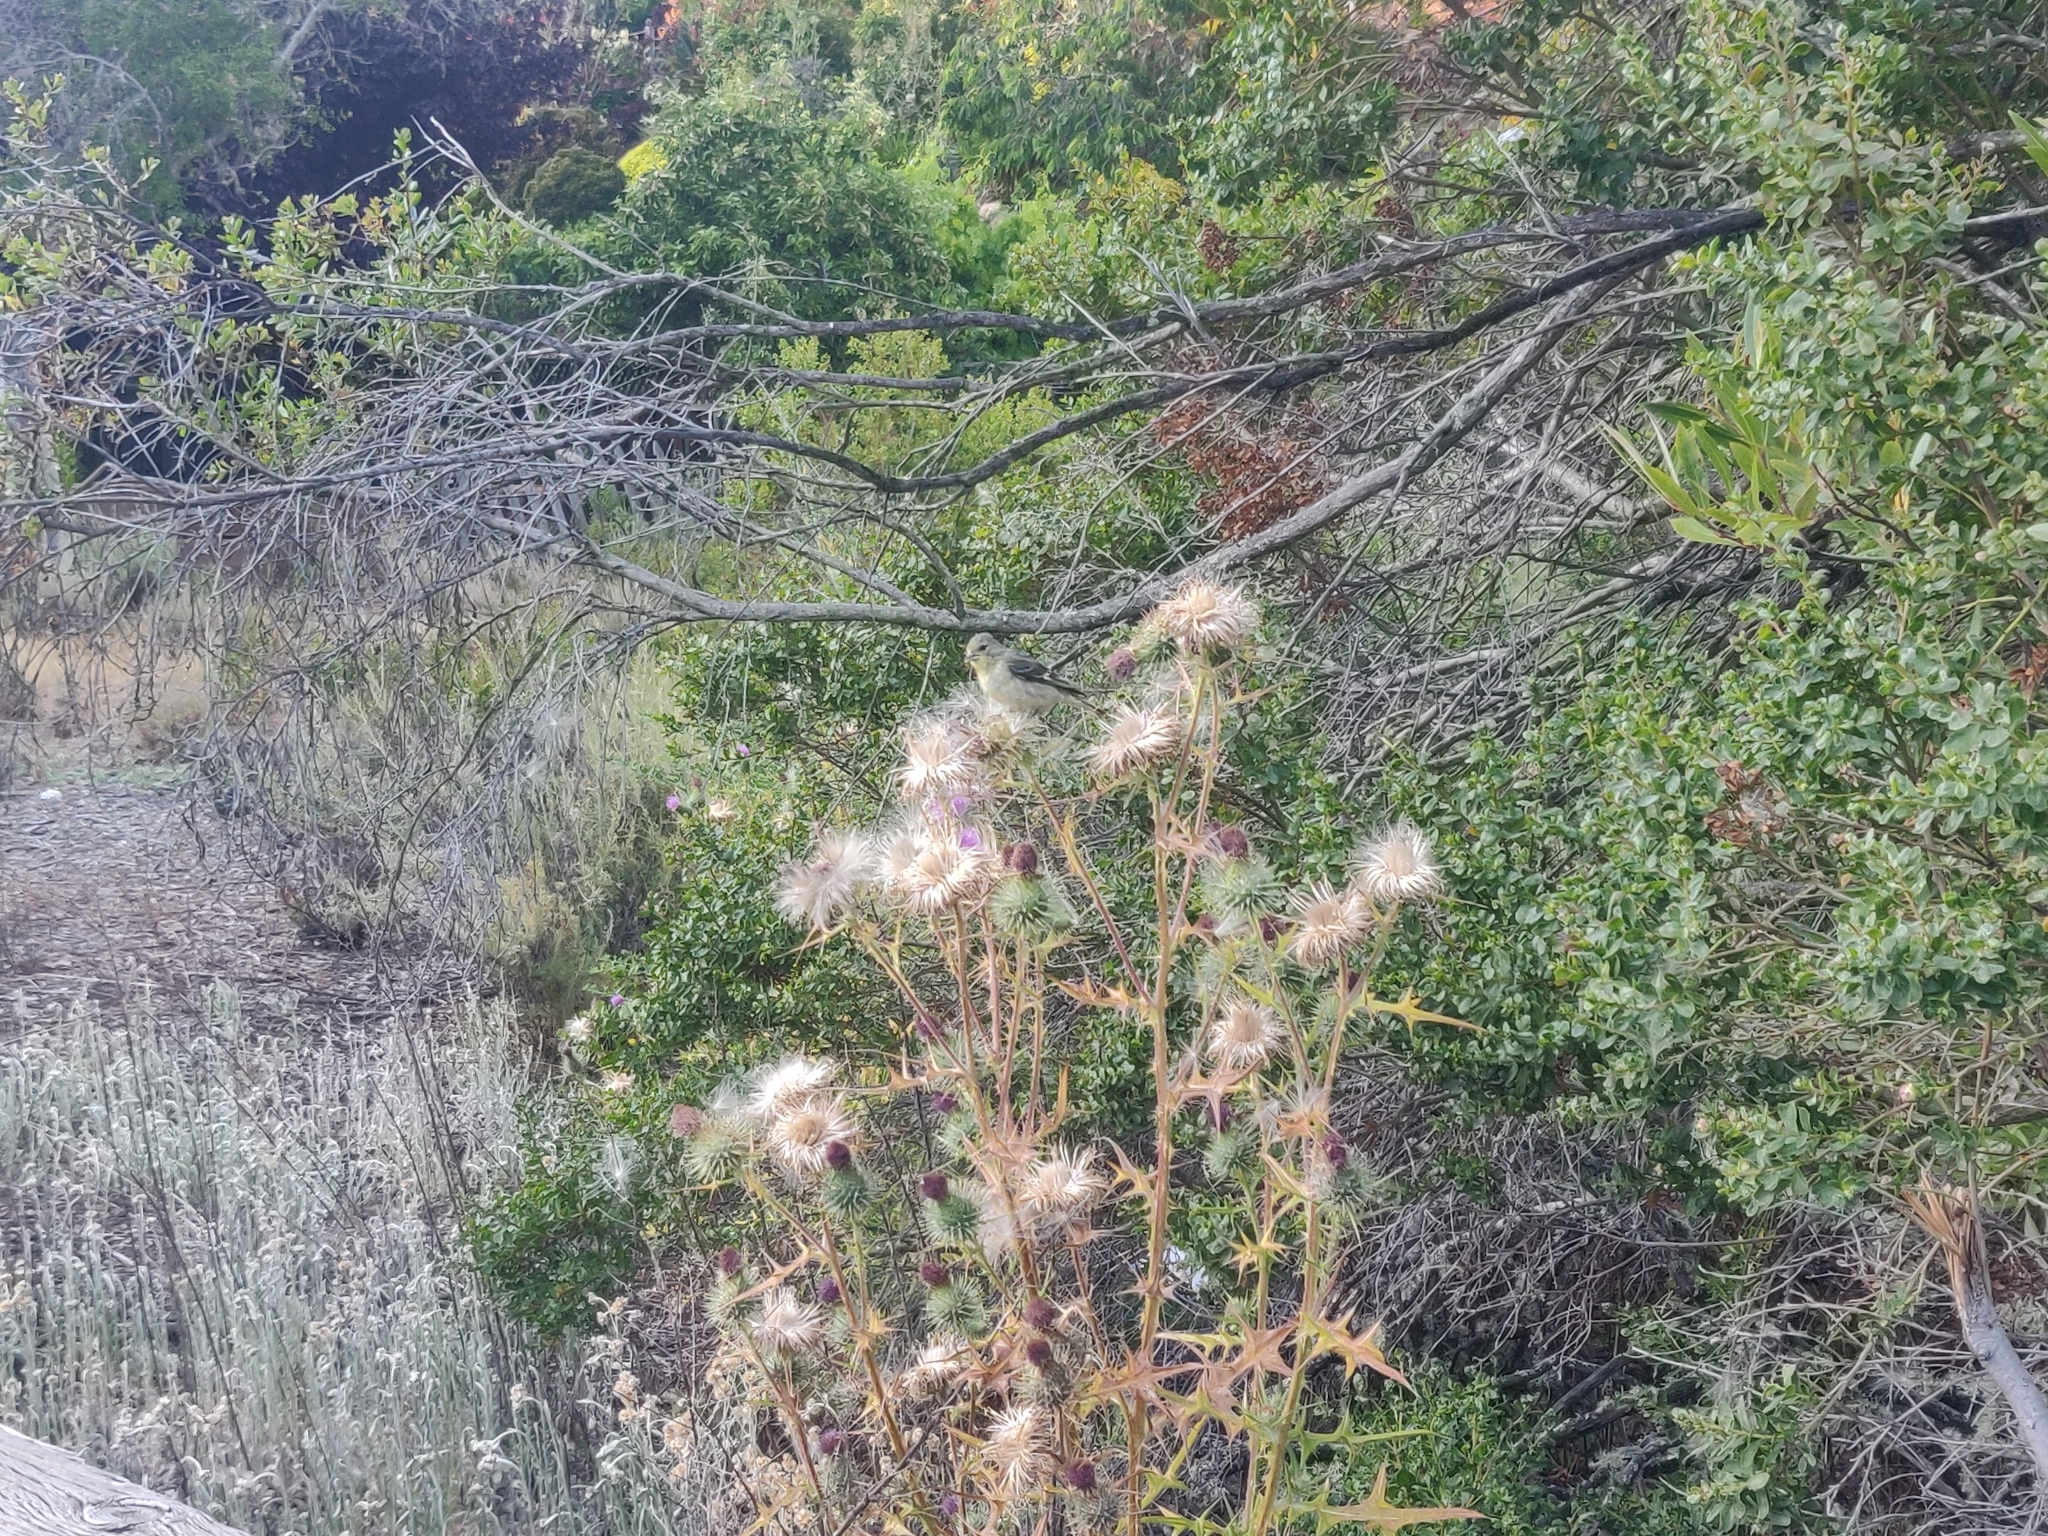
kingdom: Animalia
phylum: Chordata
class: Aves
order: Passeriformes
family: Fringillidae
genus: Spinus
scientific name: Spinus psaltria
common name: Lesser goldfinch
